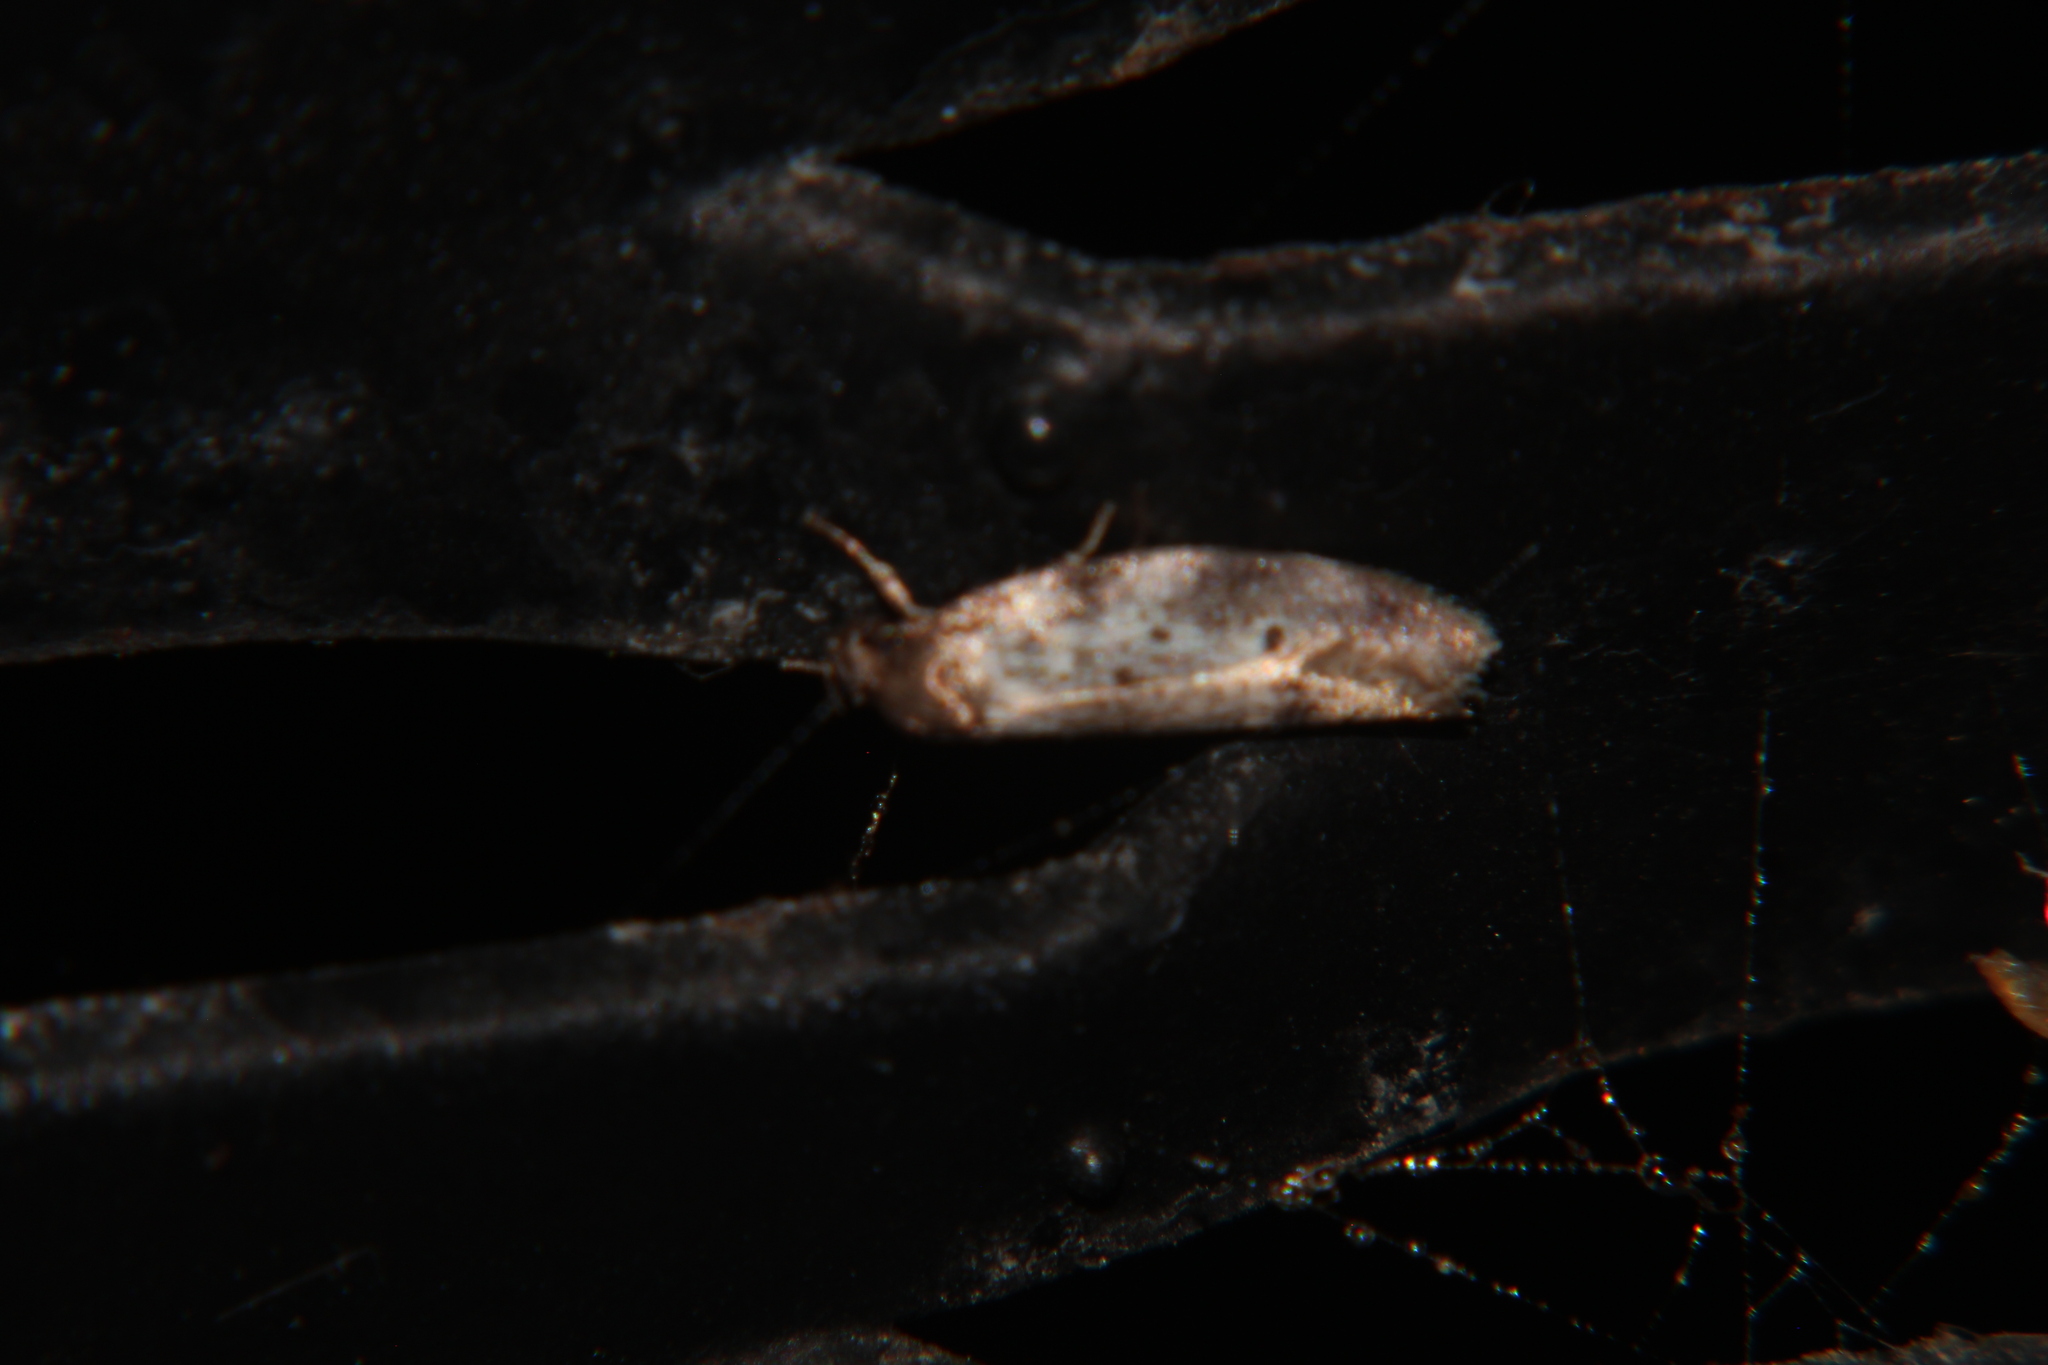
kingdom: Animalia
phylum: Arthropoda
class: Insecta
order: Lepidoptera
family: Oecophoridae
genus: Tingena
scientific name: Tingena clarkei
